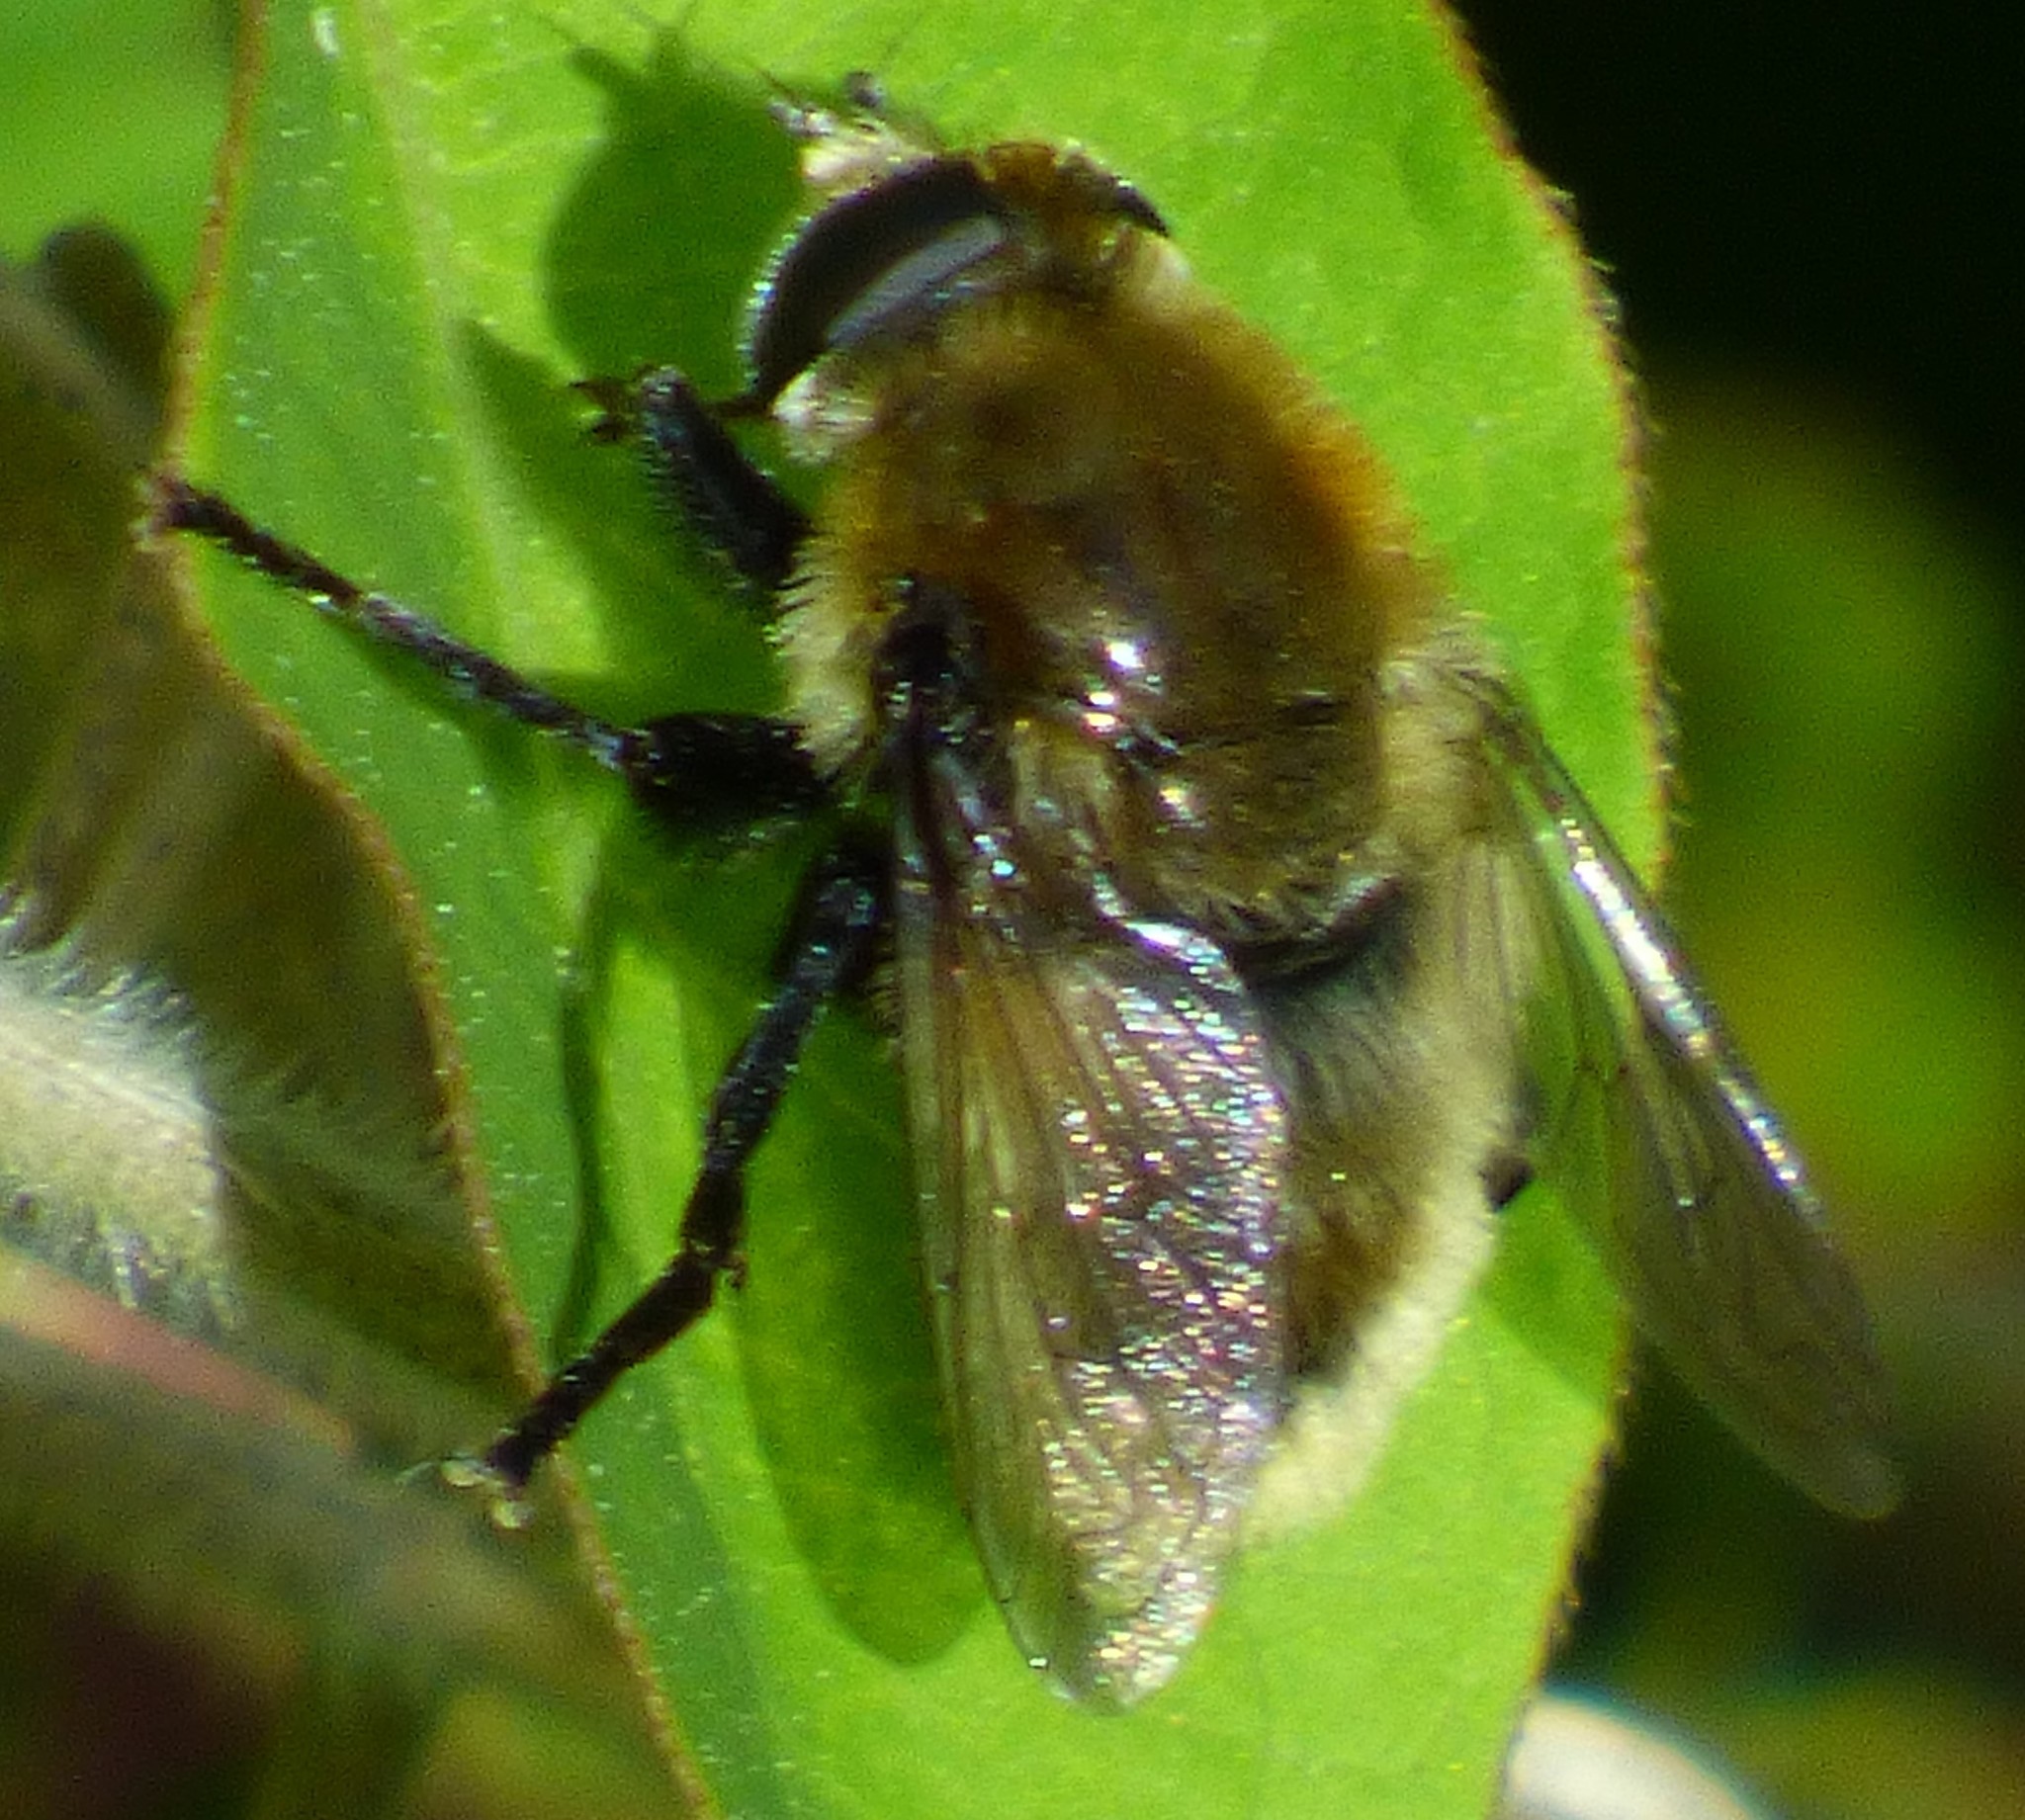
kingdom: Animalia
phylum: Arthropoda
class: Insecta
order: Diptera
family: Syrphidae
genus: Merodon
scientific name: Merodon equestris
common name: Greater bulb-fly
